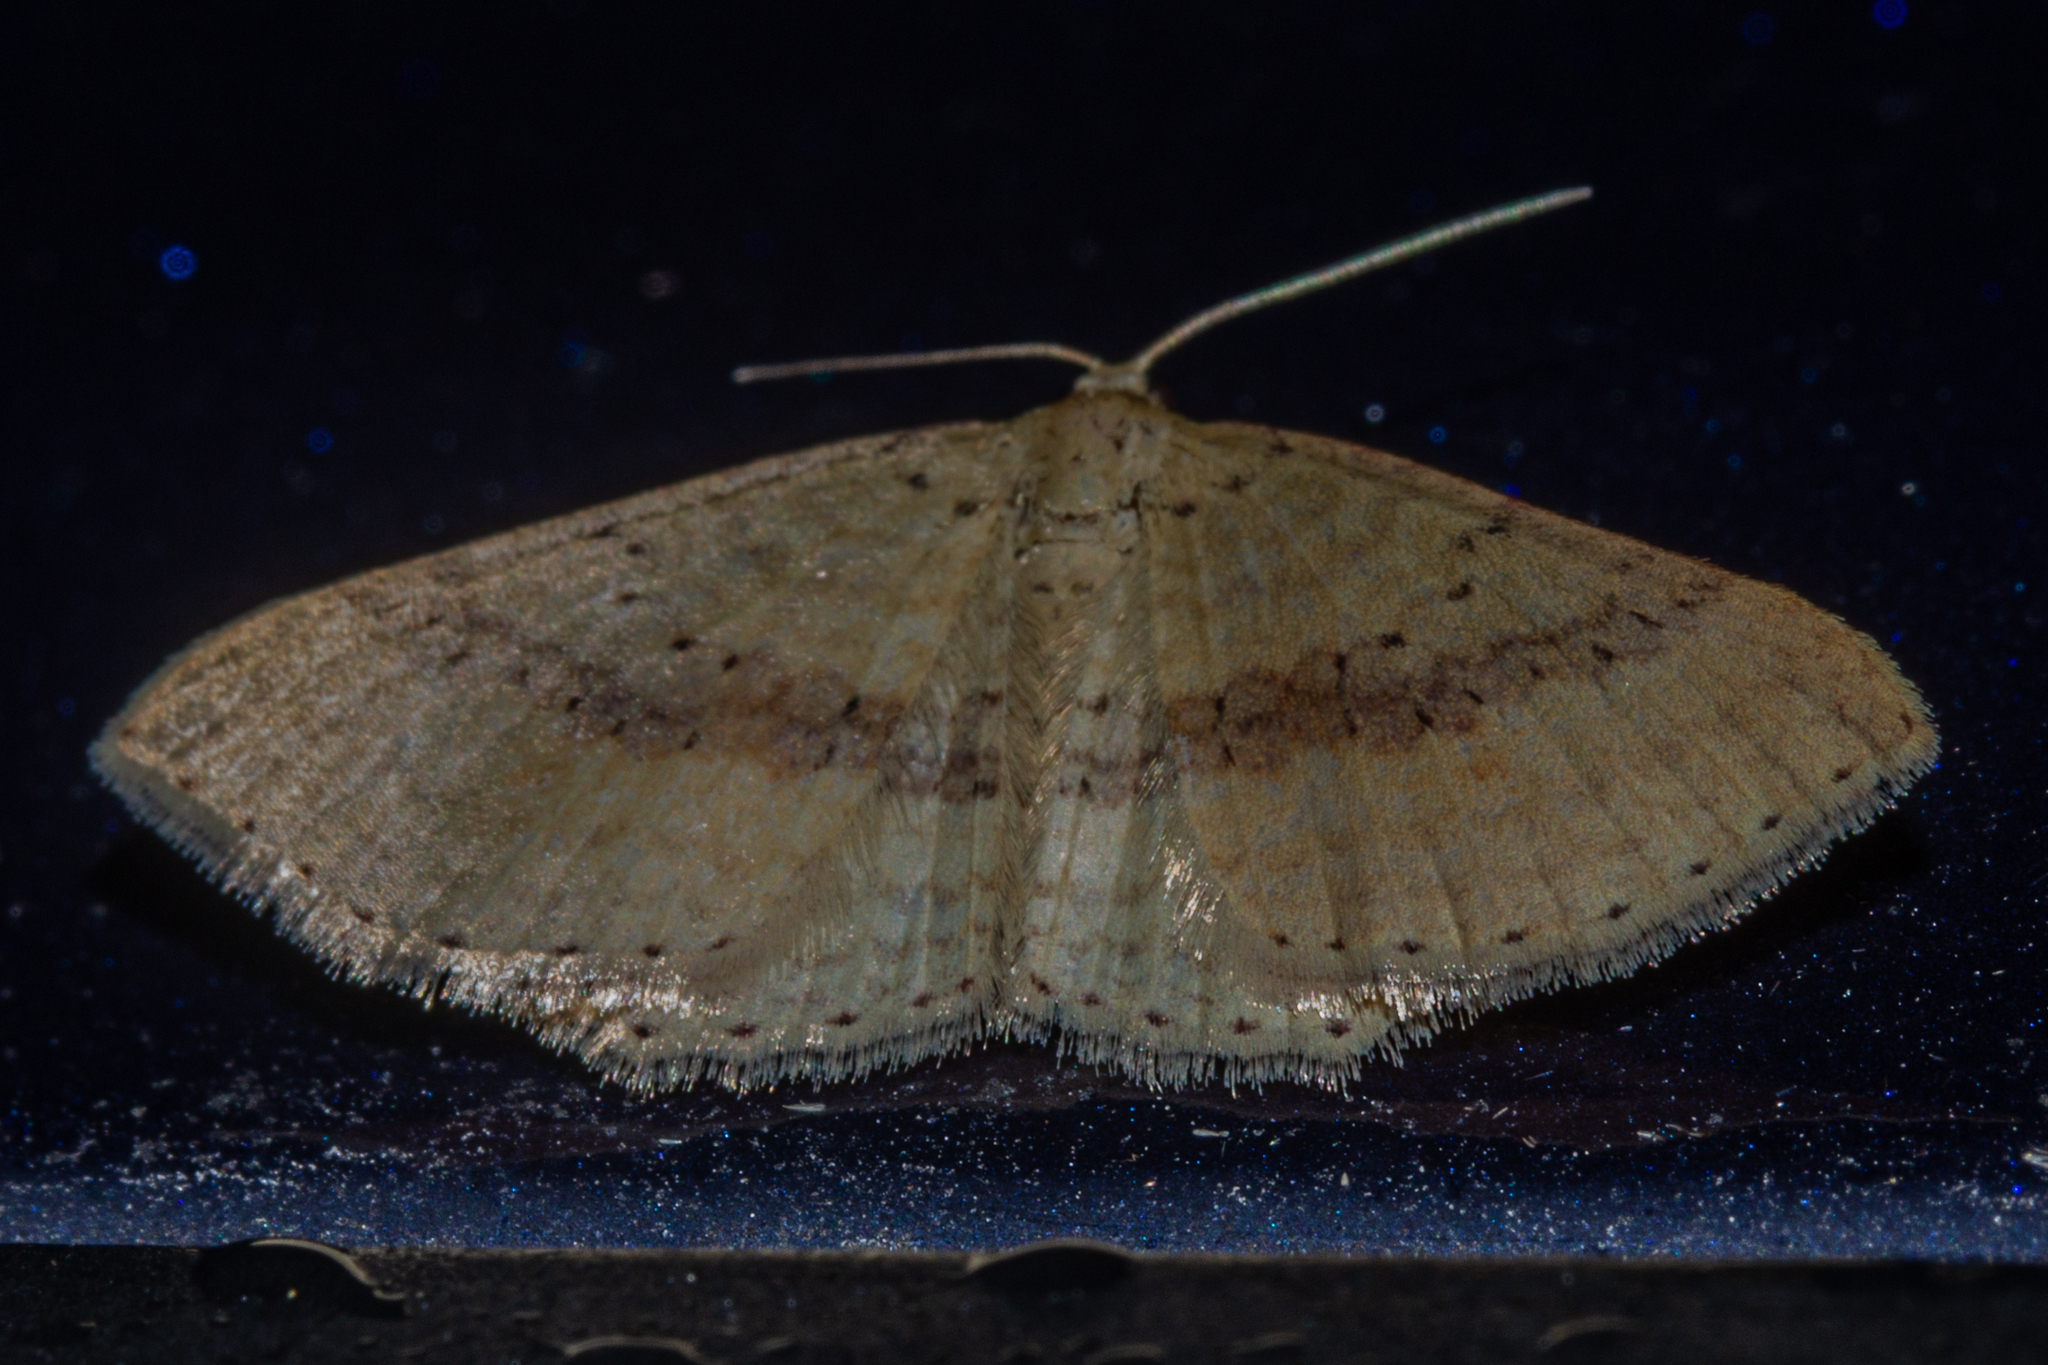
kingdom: Animalia
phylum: Arthropoda
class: Insecta
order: Lepidoptera
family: Geometridae
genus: Epicyme
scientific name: Epicyme rubropunctaria
